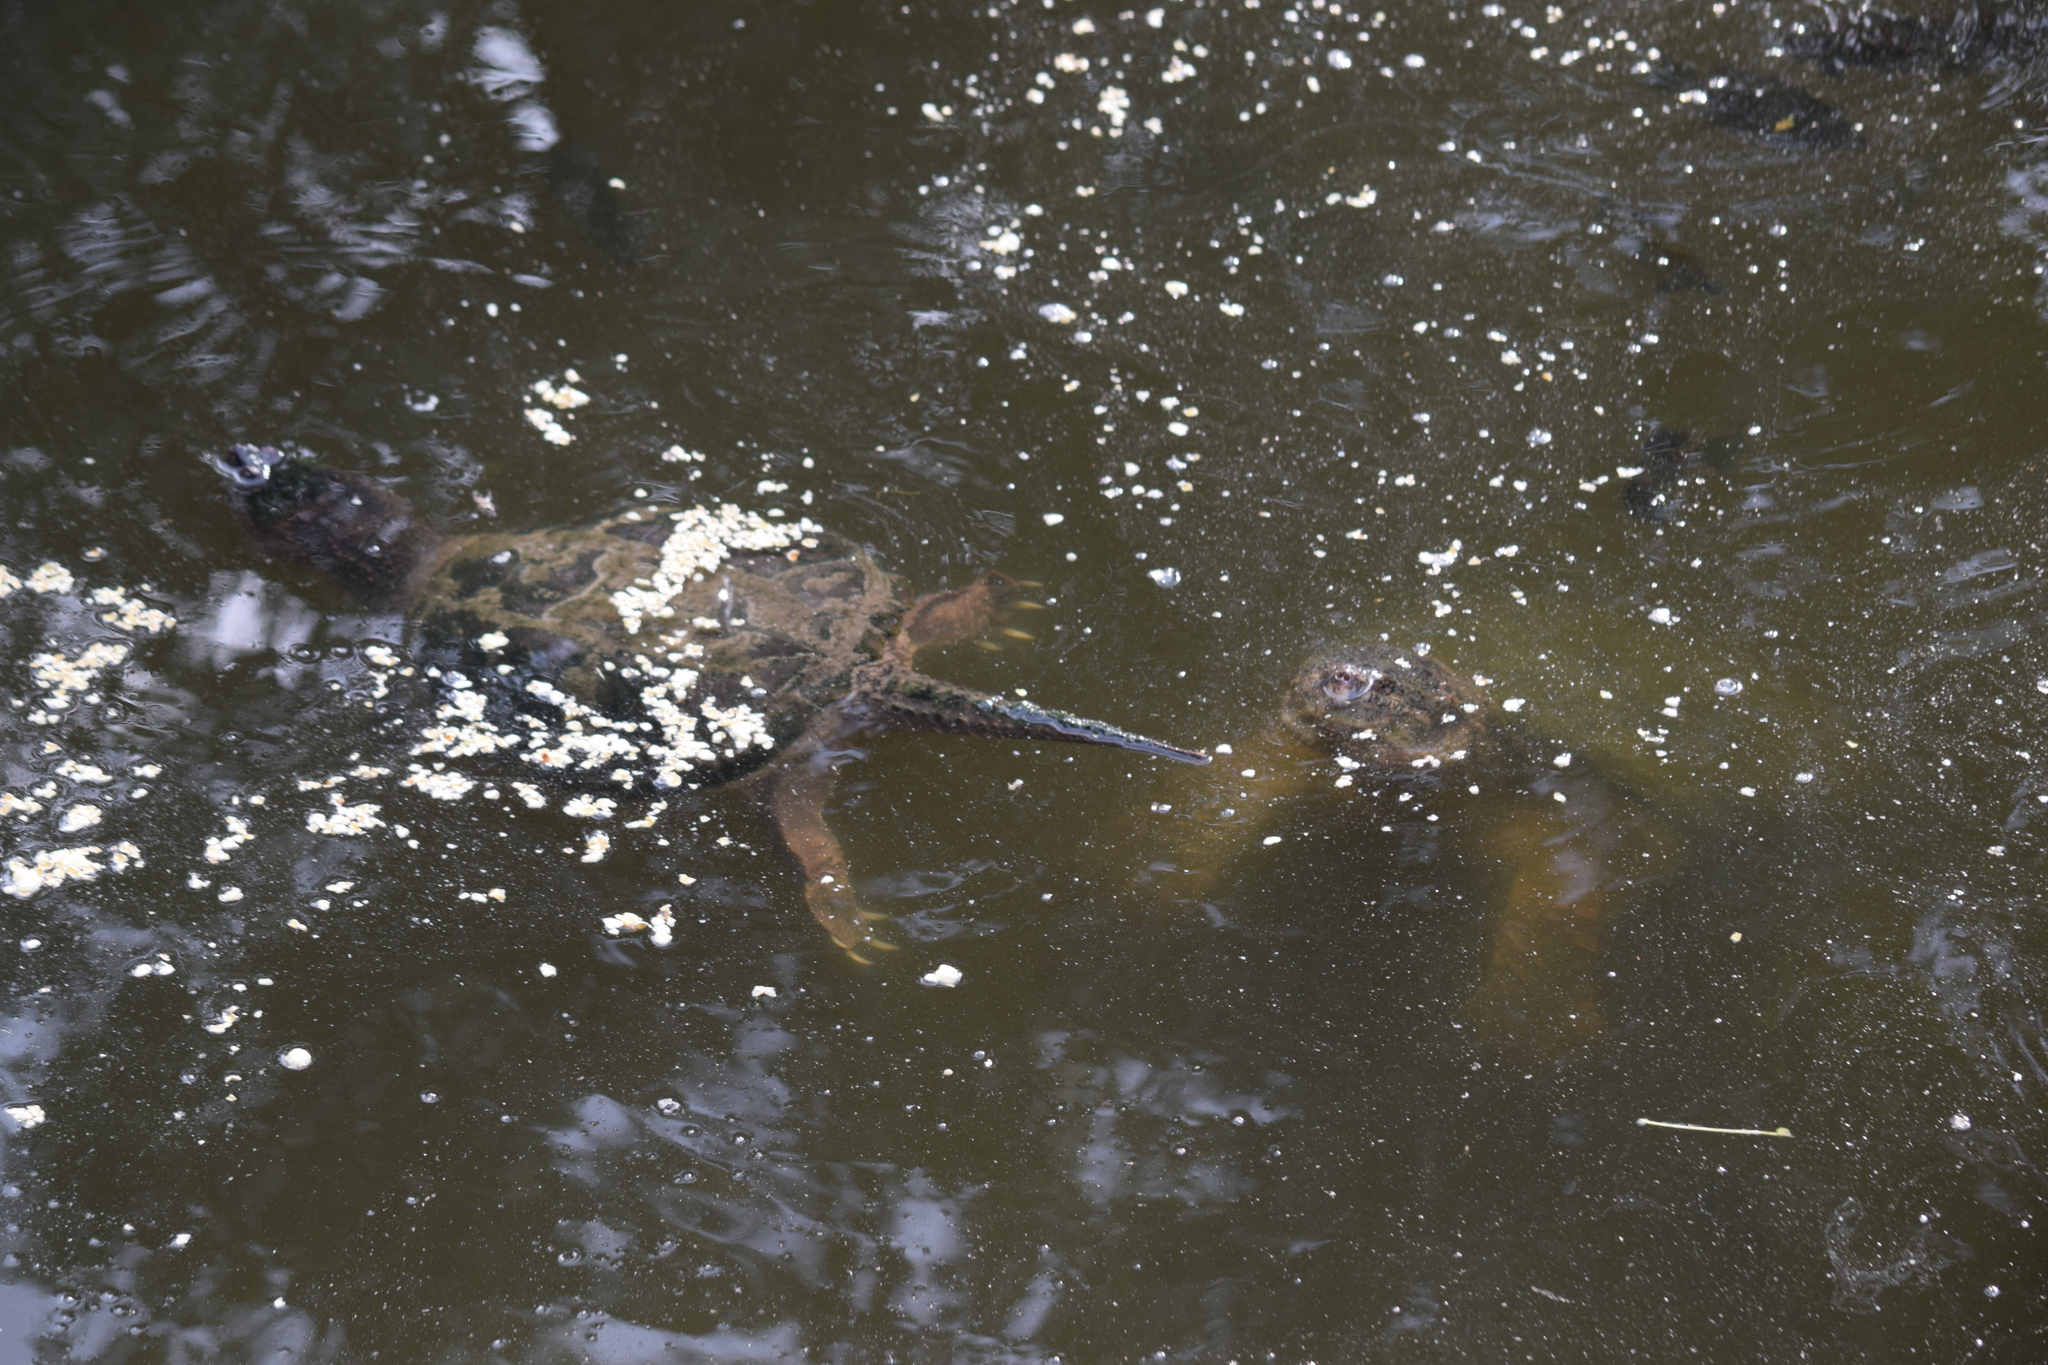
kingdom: Animalia
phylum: Chordata
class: Testudines
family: Chelydridae
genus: Chelydra
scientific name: Chelydra serpentina
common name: Common snapping turtle
